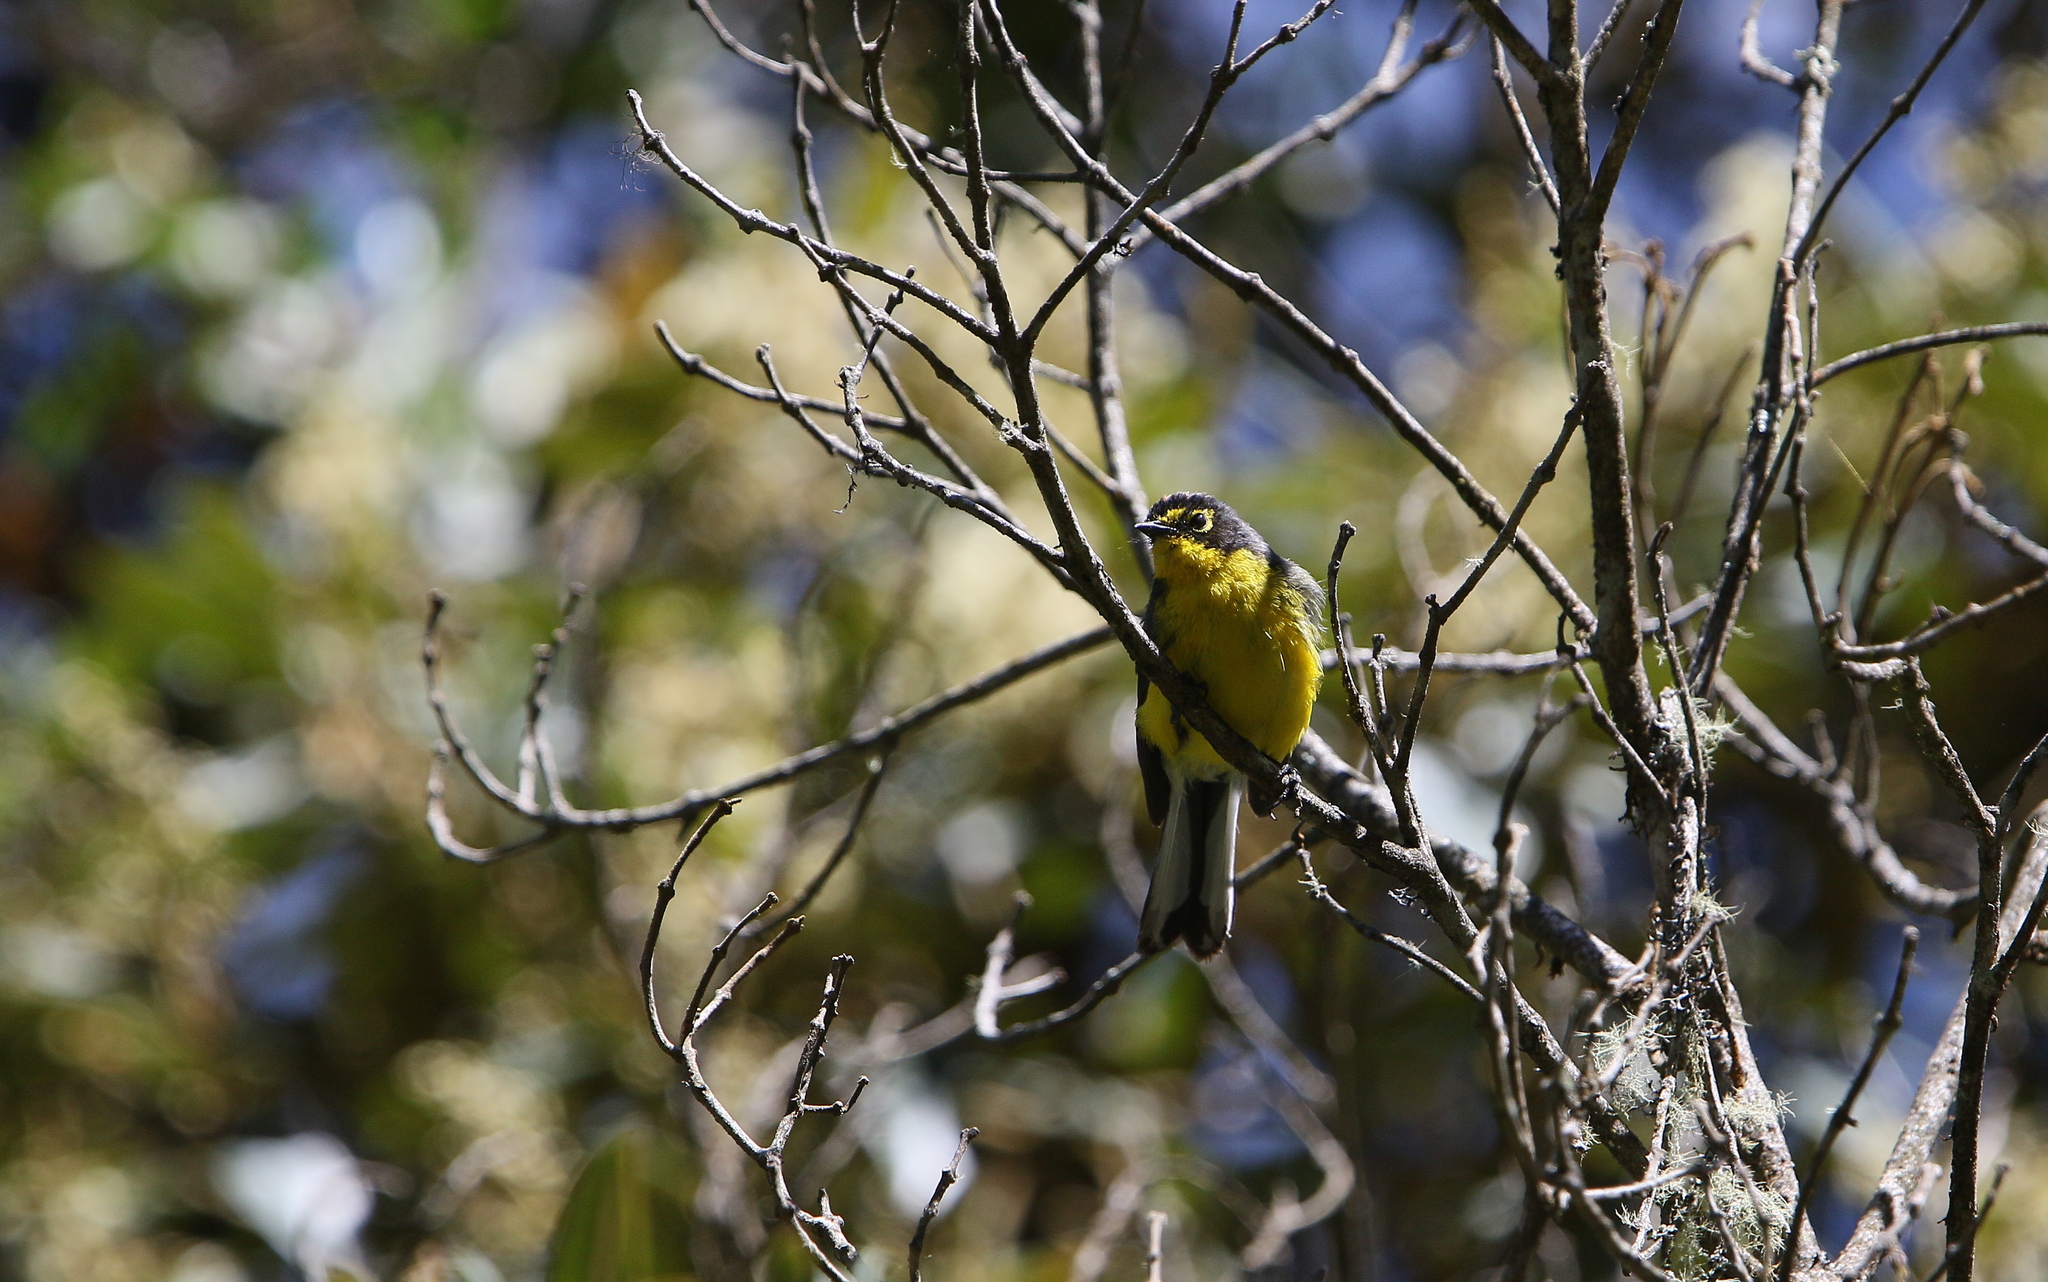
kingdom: Animalia
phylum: Chordata
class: Aves
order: Passeriformes
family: Parulidae
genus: Myioborus
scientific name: Myioborus melanocephalus
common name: Spectacled whitestart
